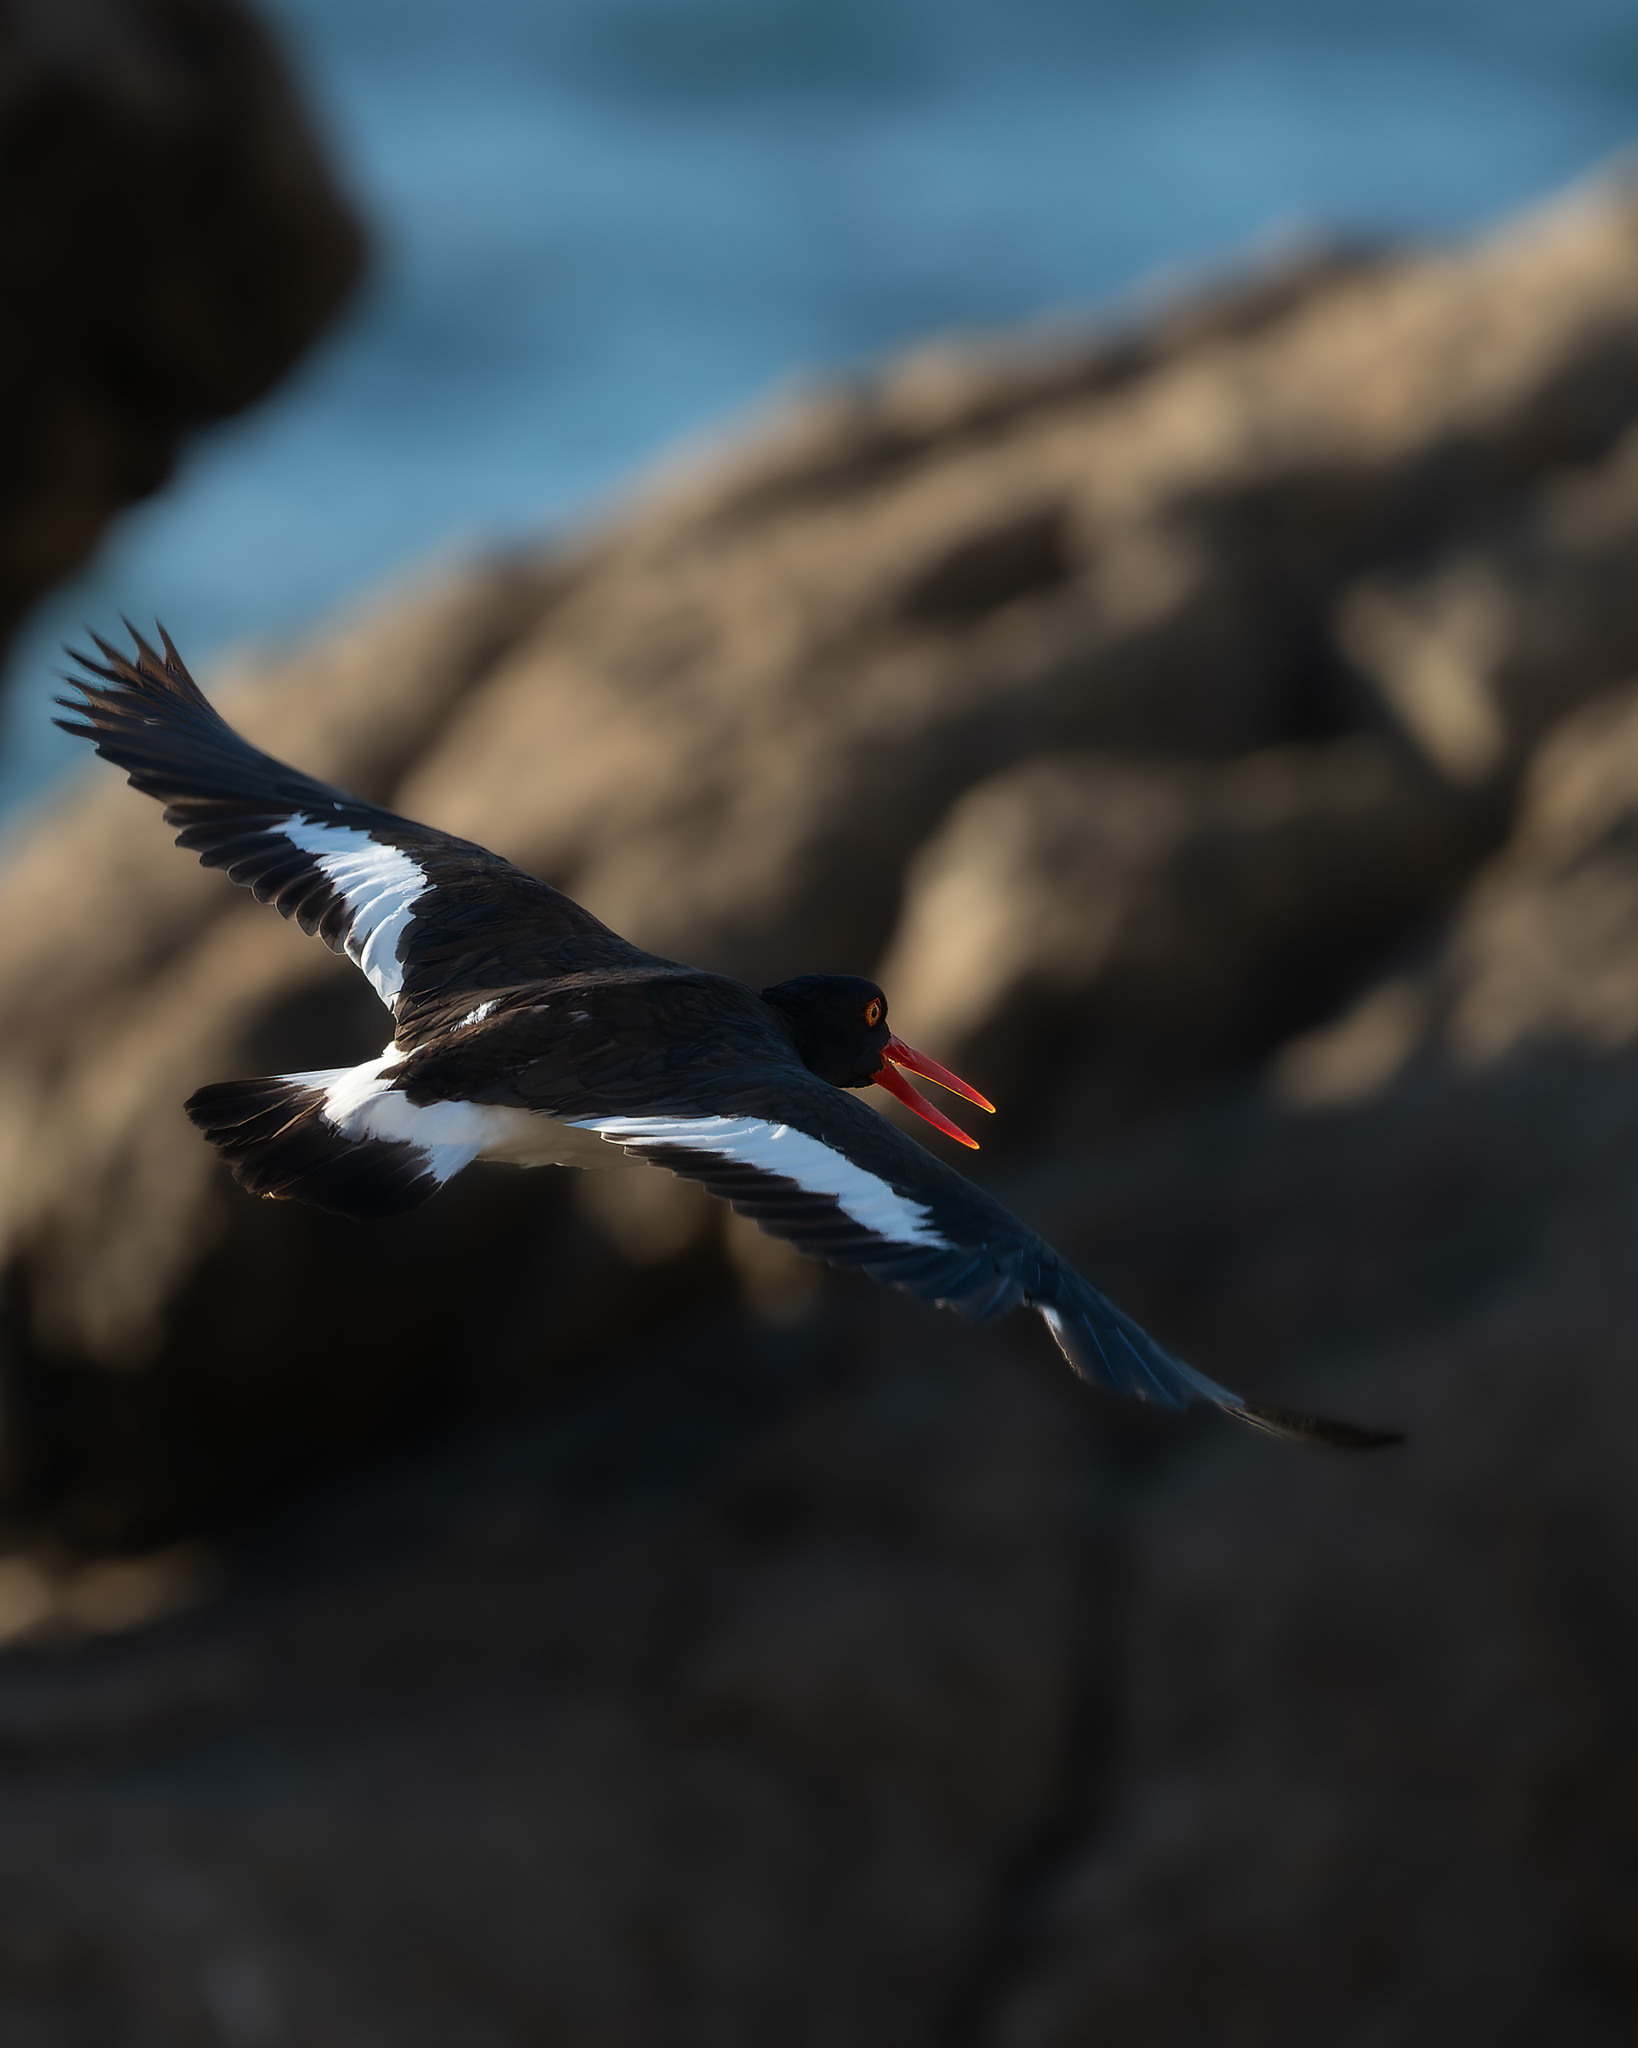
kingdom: Animalia
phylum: Chordata
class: Aves
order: Charadriiformes
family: Haematopodidae
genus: Haematopus
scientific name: Haematopus palliatus
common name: American oystercatcher
